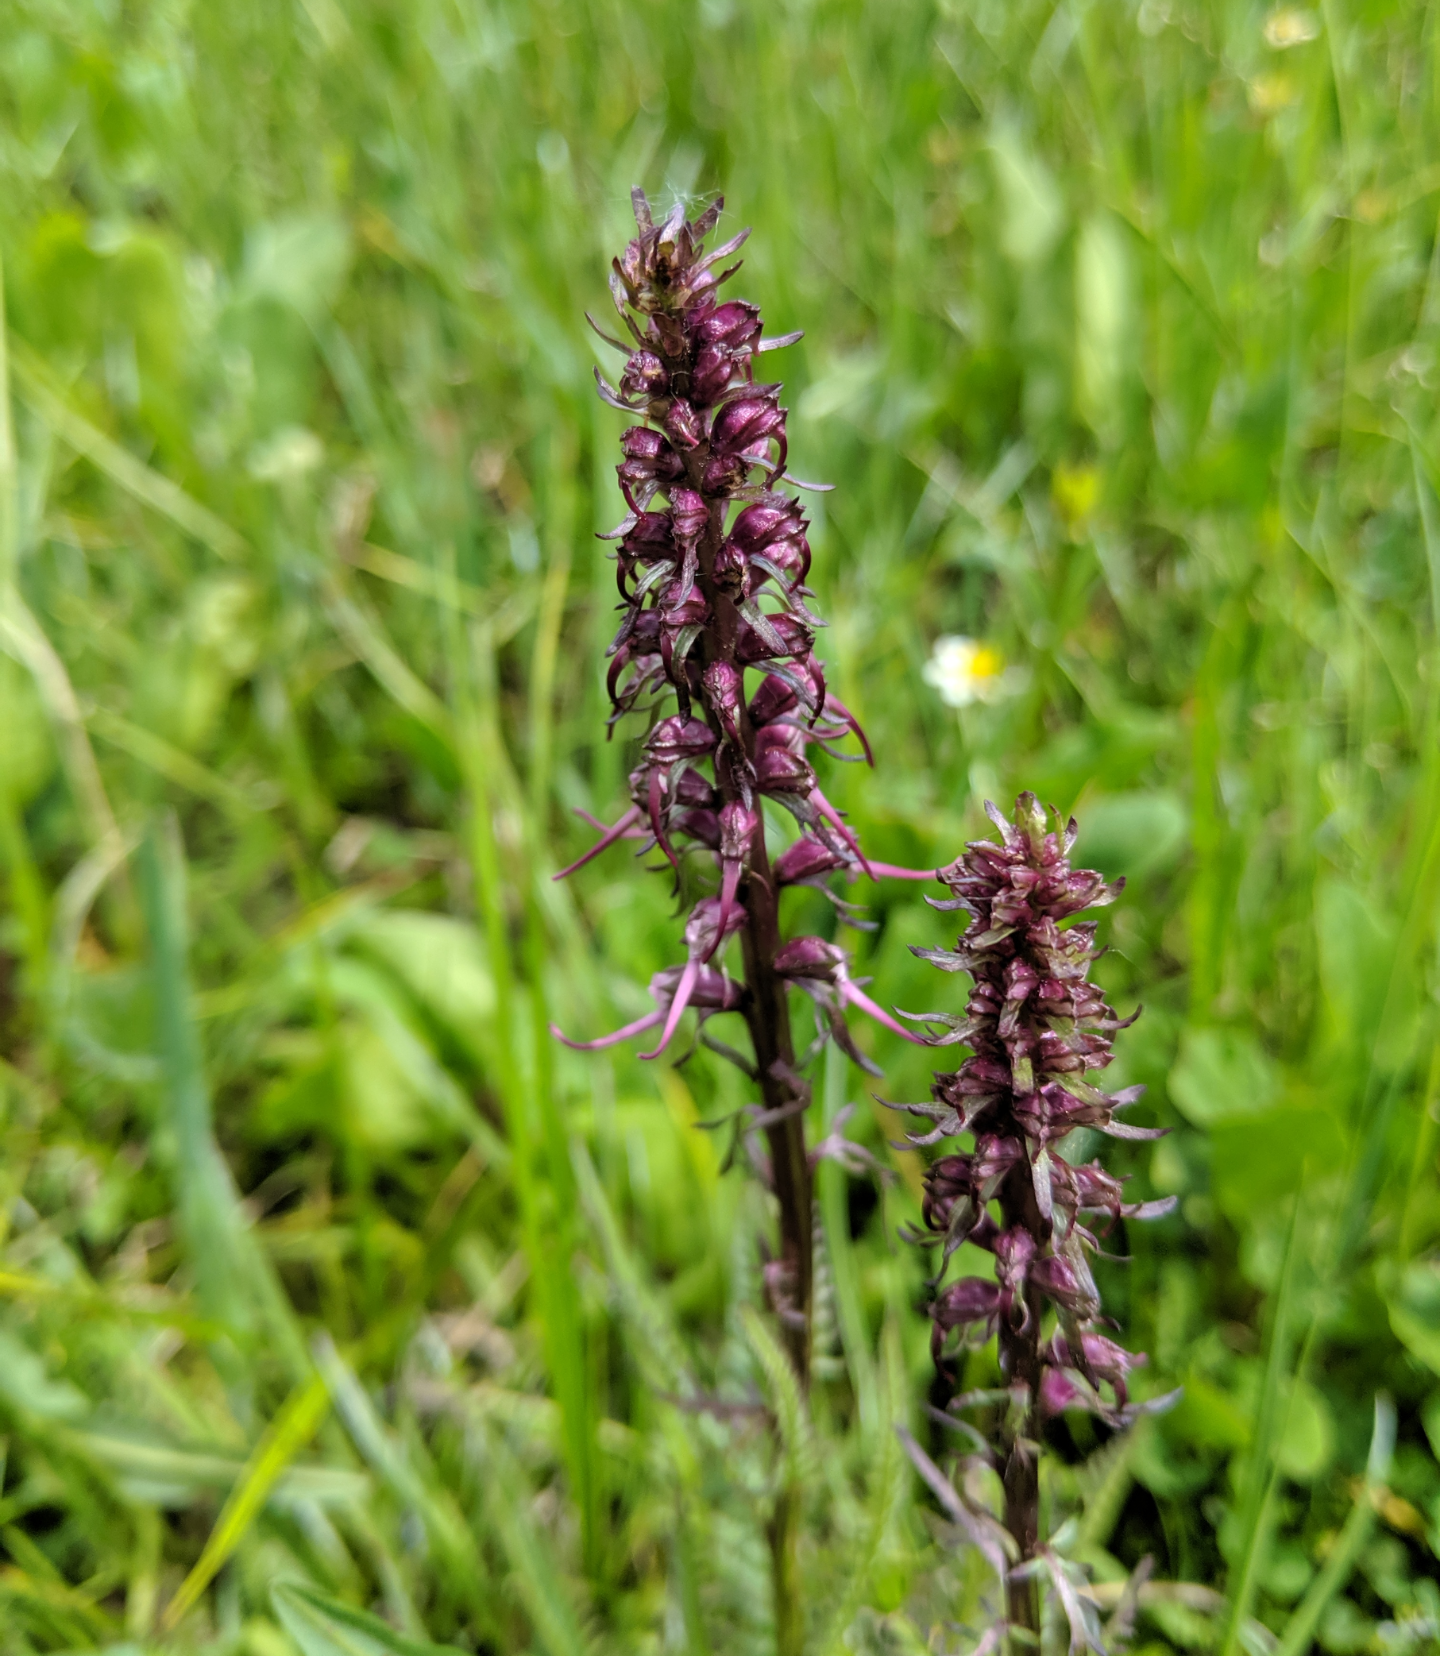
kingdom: Plantae
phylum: Tracheophyta
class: Magnoliopsida
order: Lamiales
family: Orobanchaceae
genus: Pedicularis
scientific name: Pedicularis groenlandica
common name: Elephant's-head
